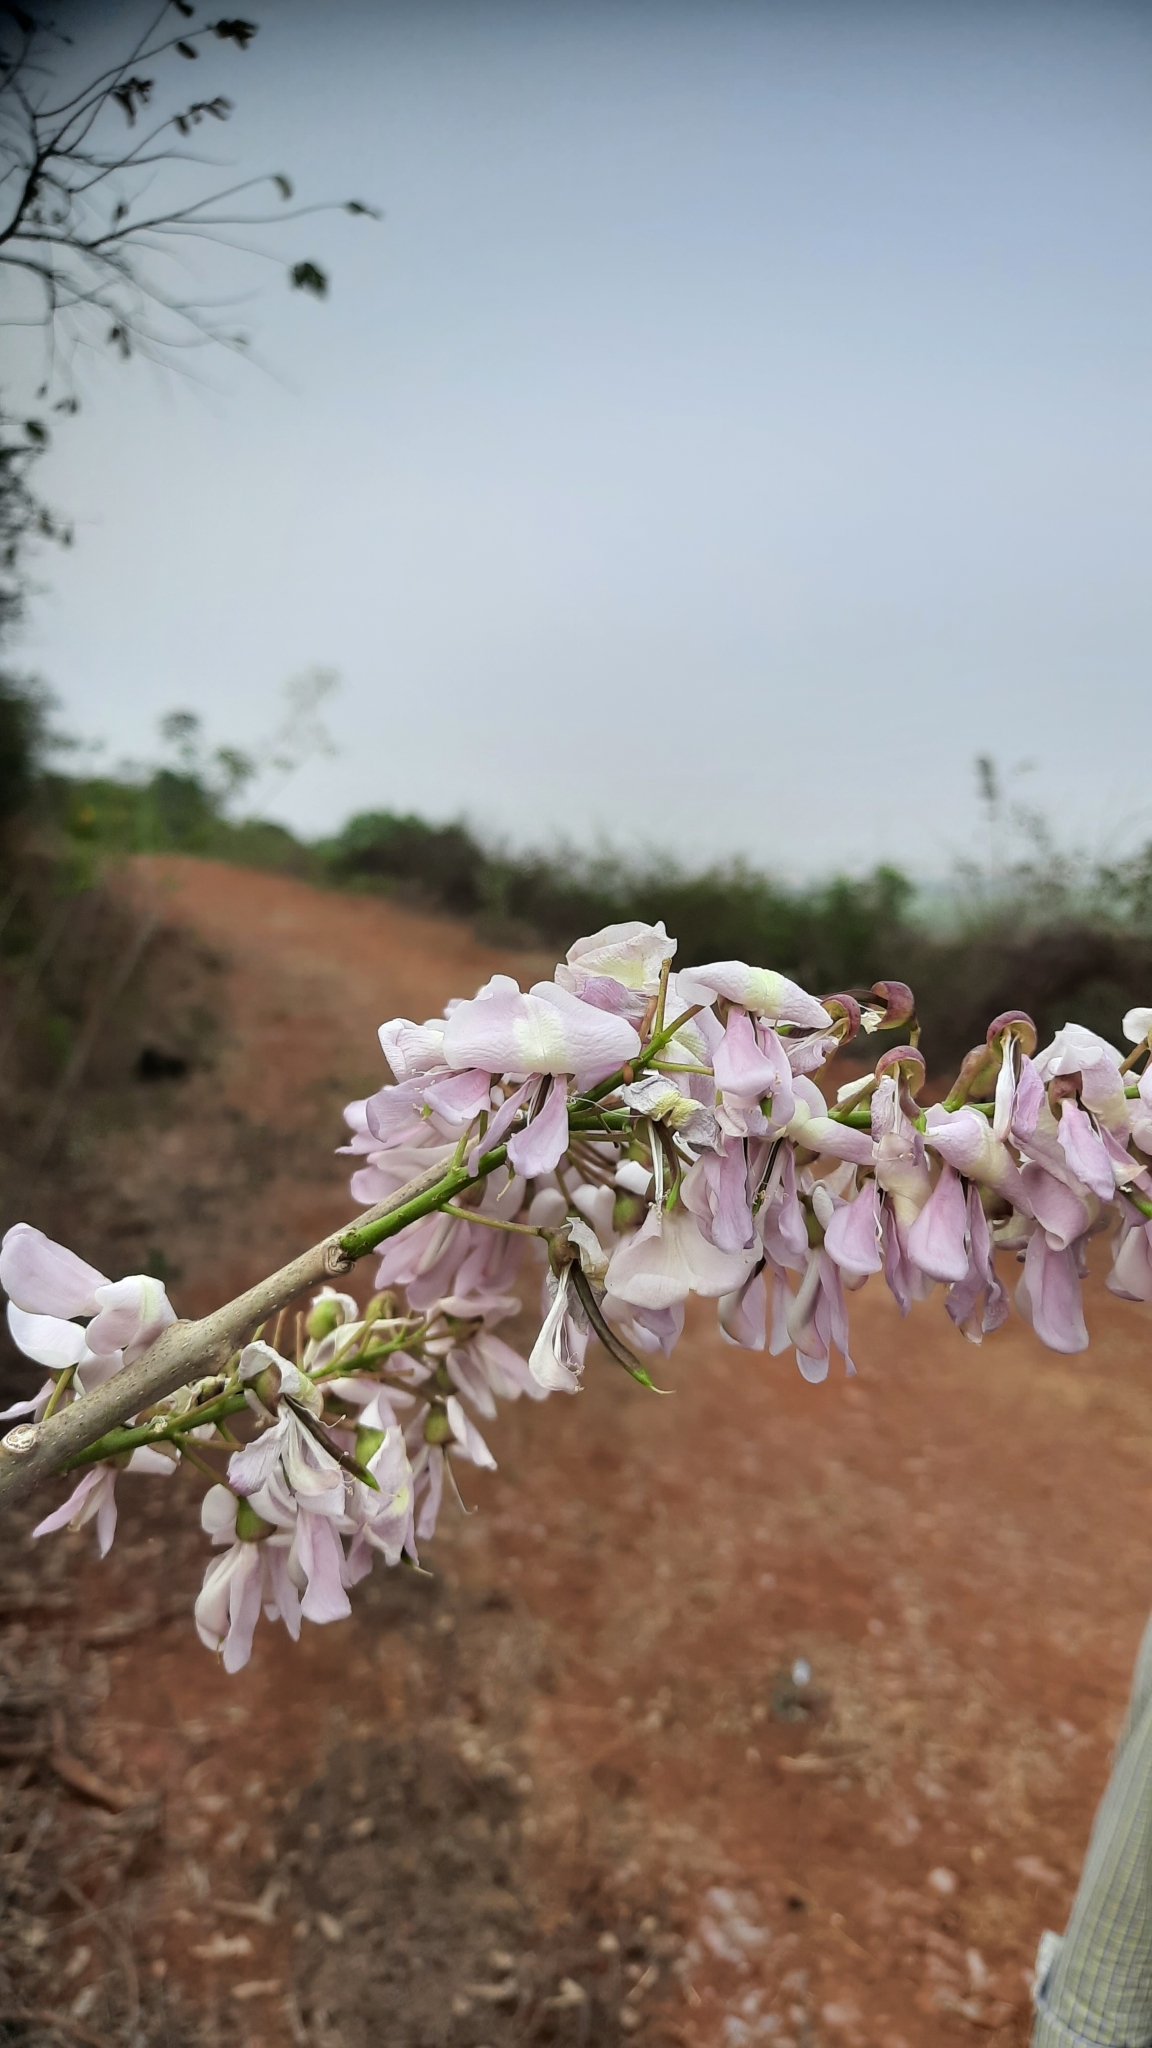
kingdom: Plantae
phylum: Tracheophyta
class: Magnoliopsida
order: Fabales
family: Fabaceae
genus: Gliricidia
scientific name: Gliricidia sepium
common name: Quickstick
